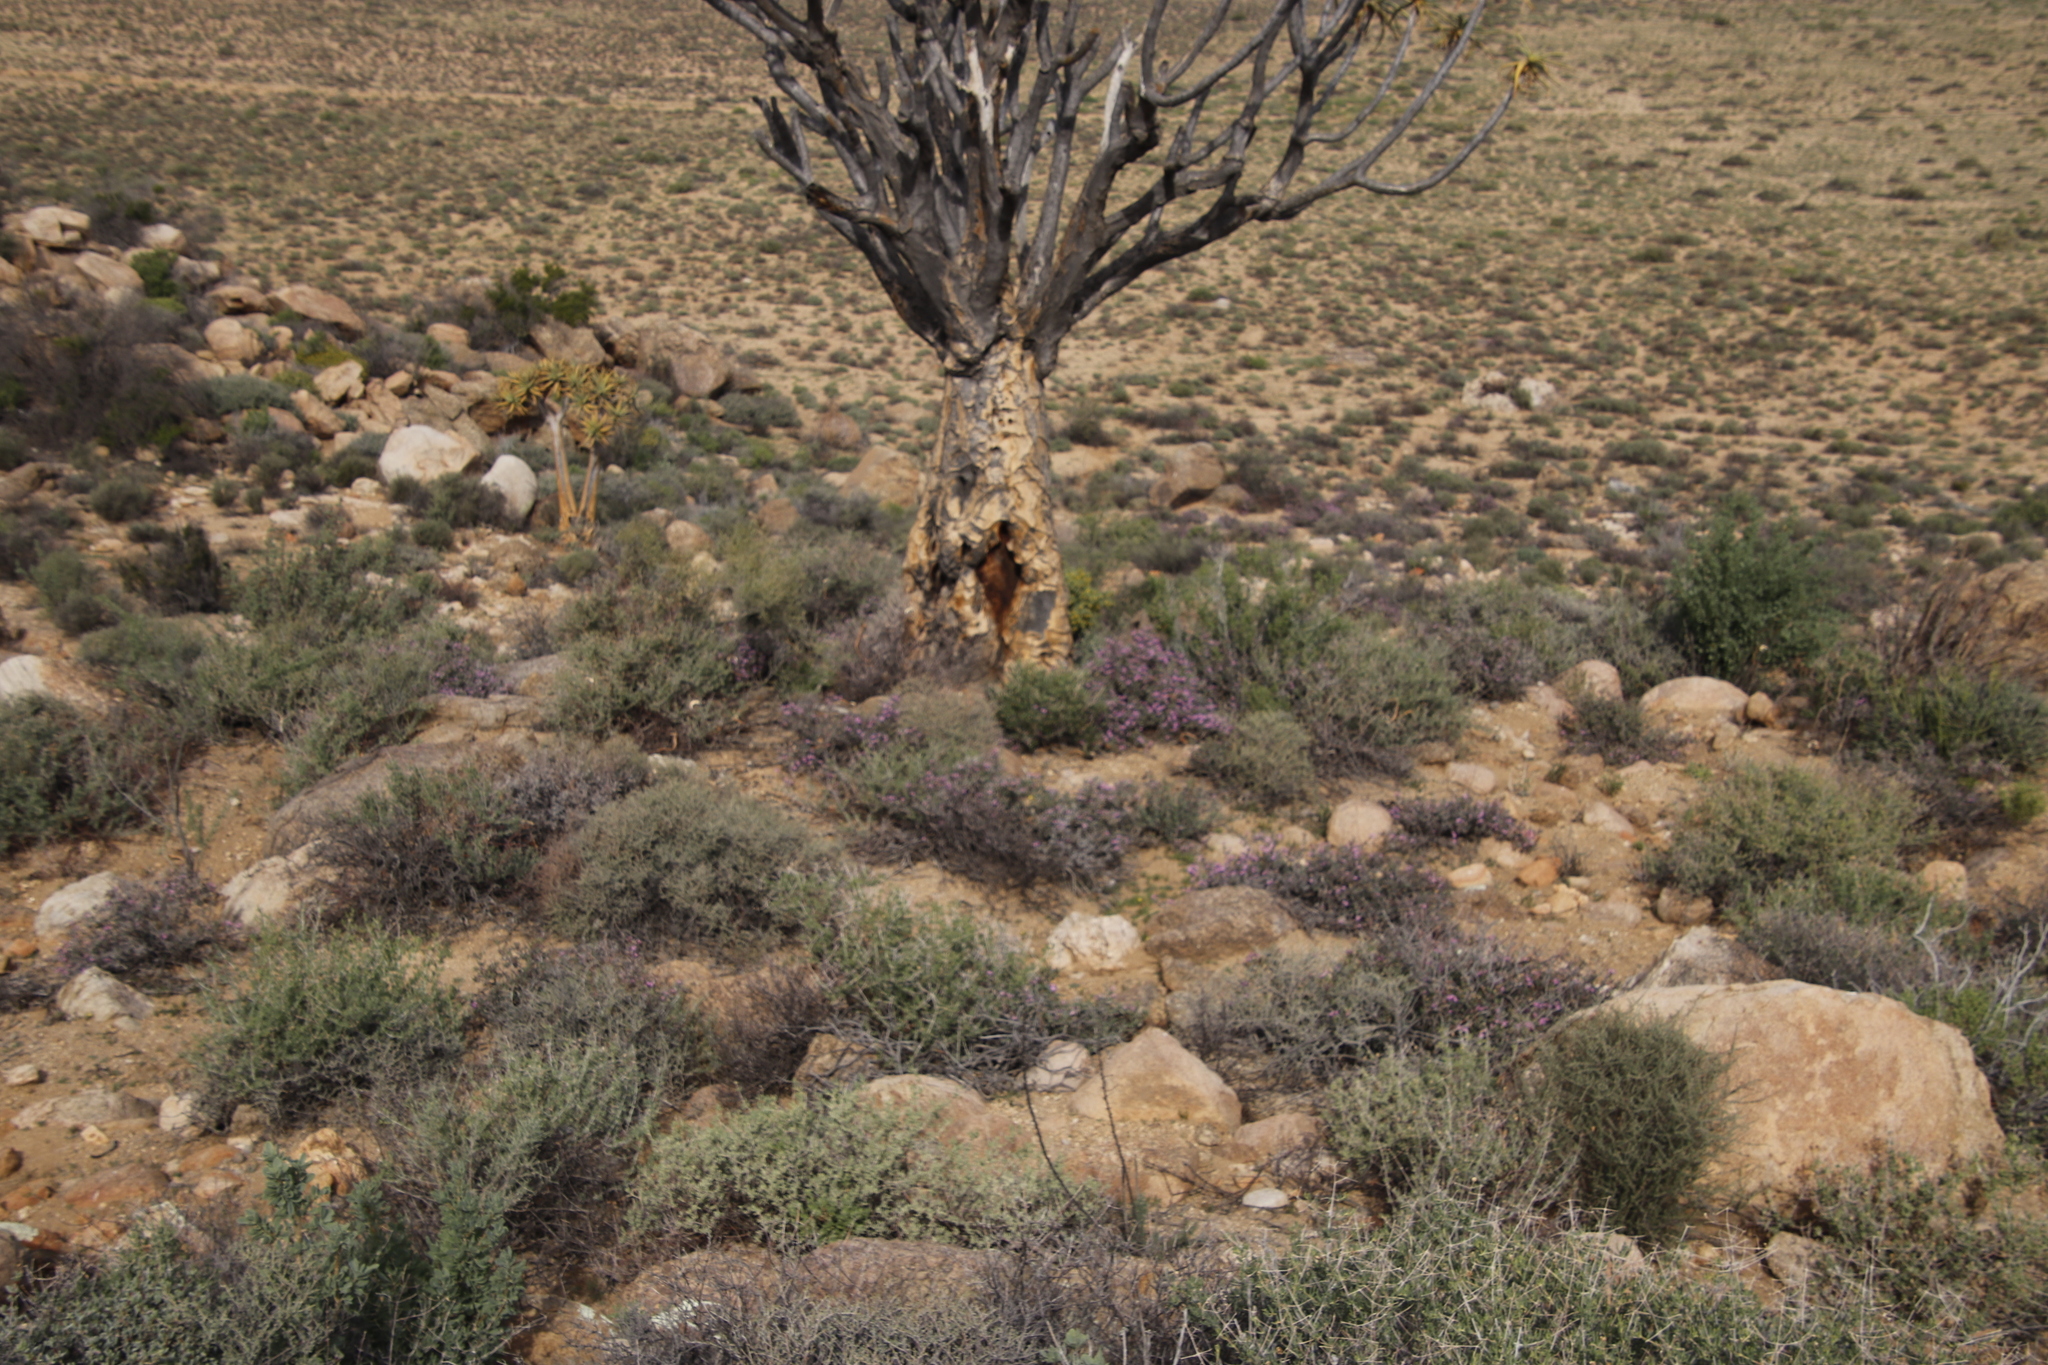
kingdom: Plantae
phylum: Tracheophyta
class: Liliopsida
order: Asparagales
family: Asphodelaceae
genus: Aloidendron
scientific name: Aloidendron dichotomum
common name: Quiver tree
